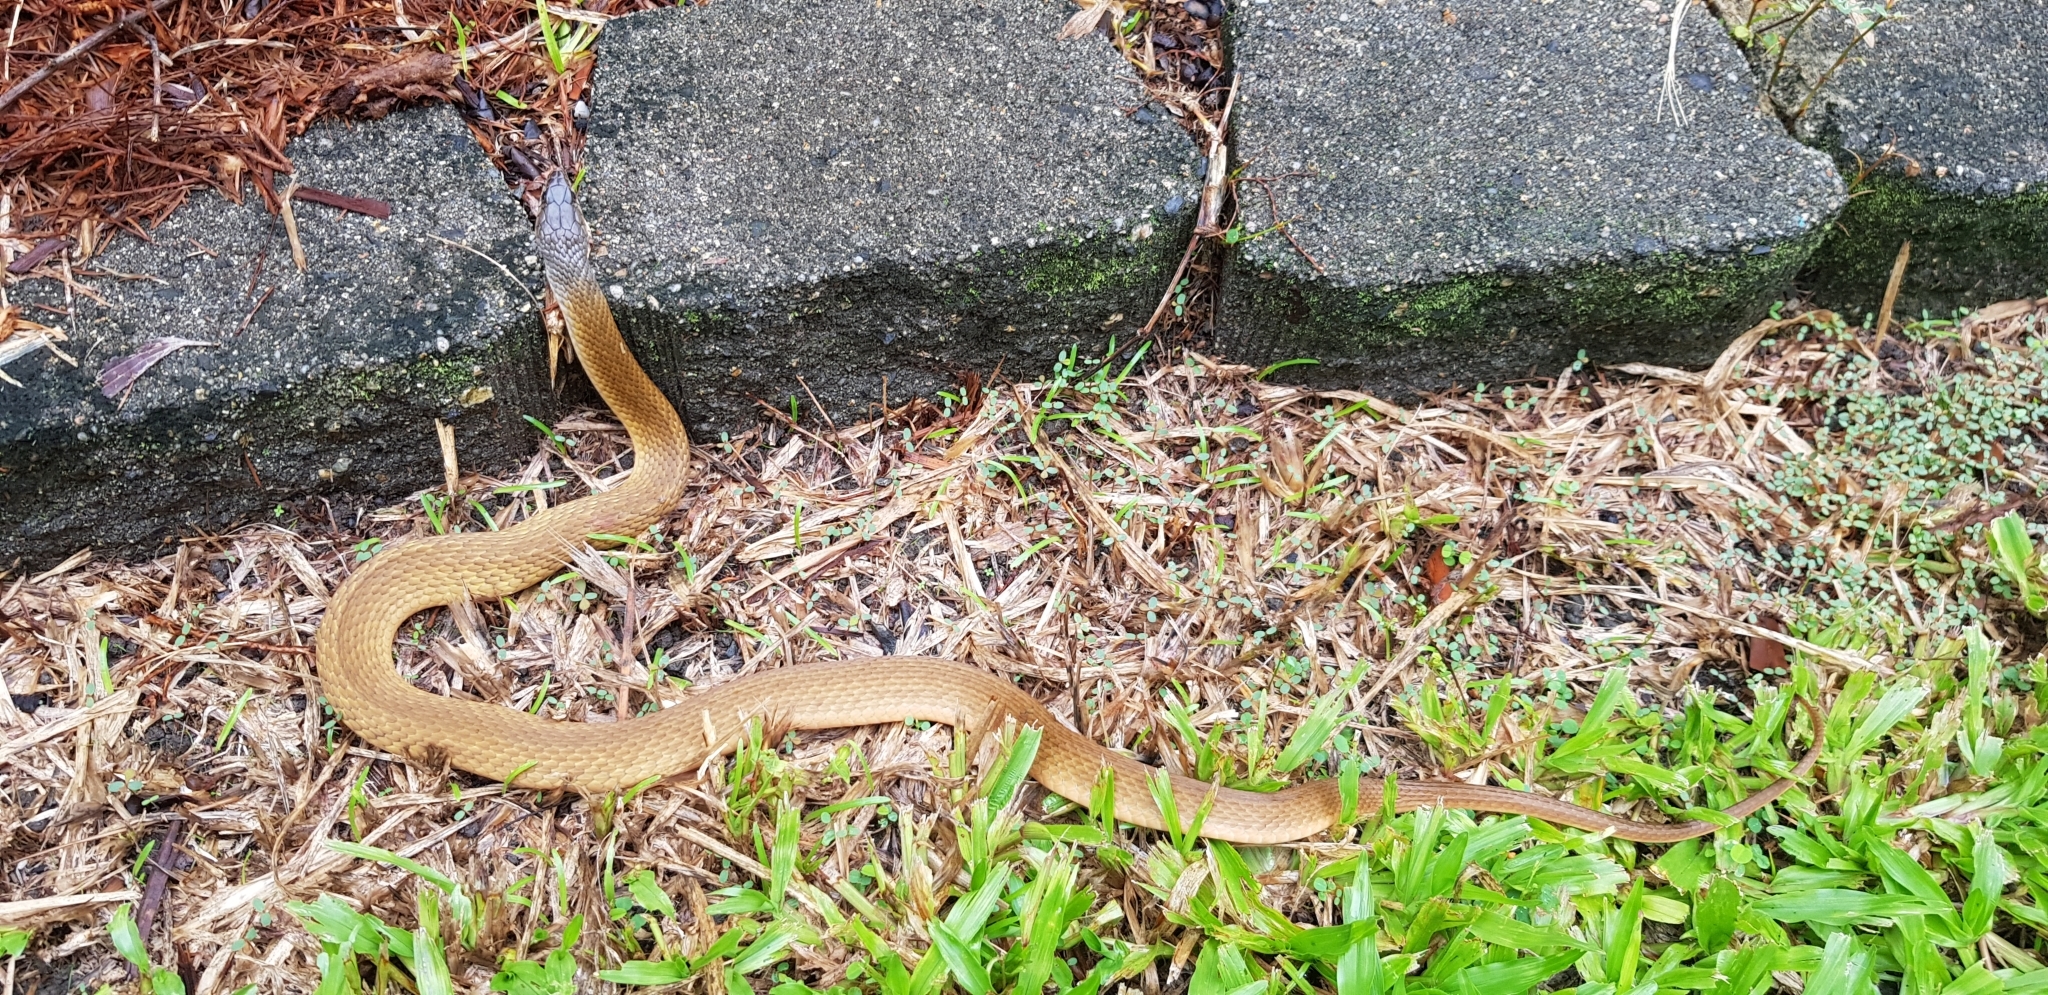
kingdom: Animalia
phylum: Chordata
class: Squamata
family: Colubridae
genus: Tropidonophis
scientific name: Tropidonophis mairii
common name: Common keelback
